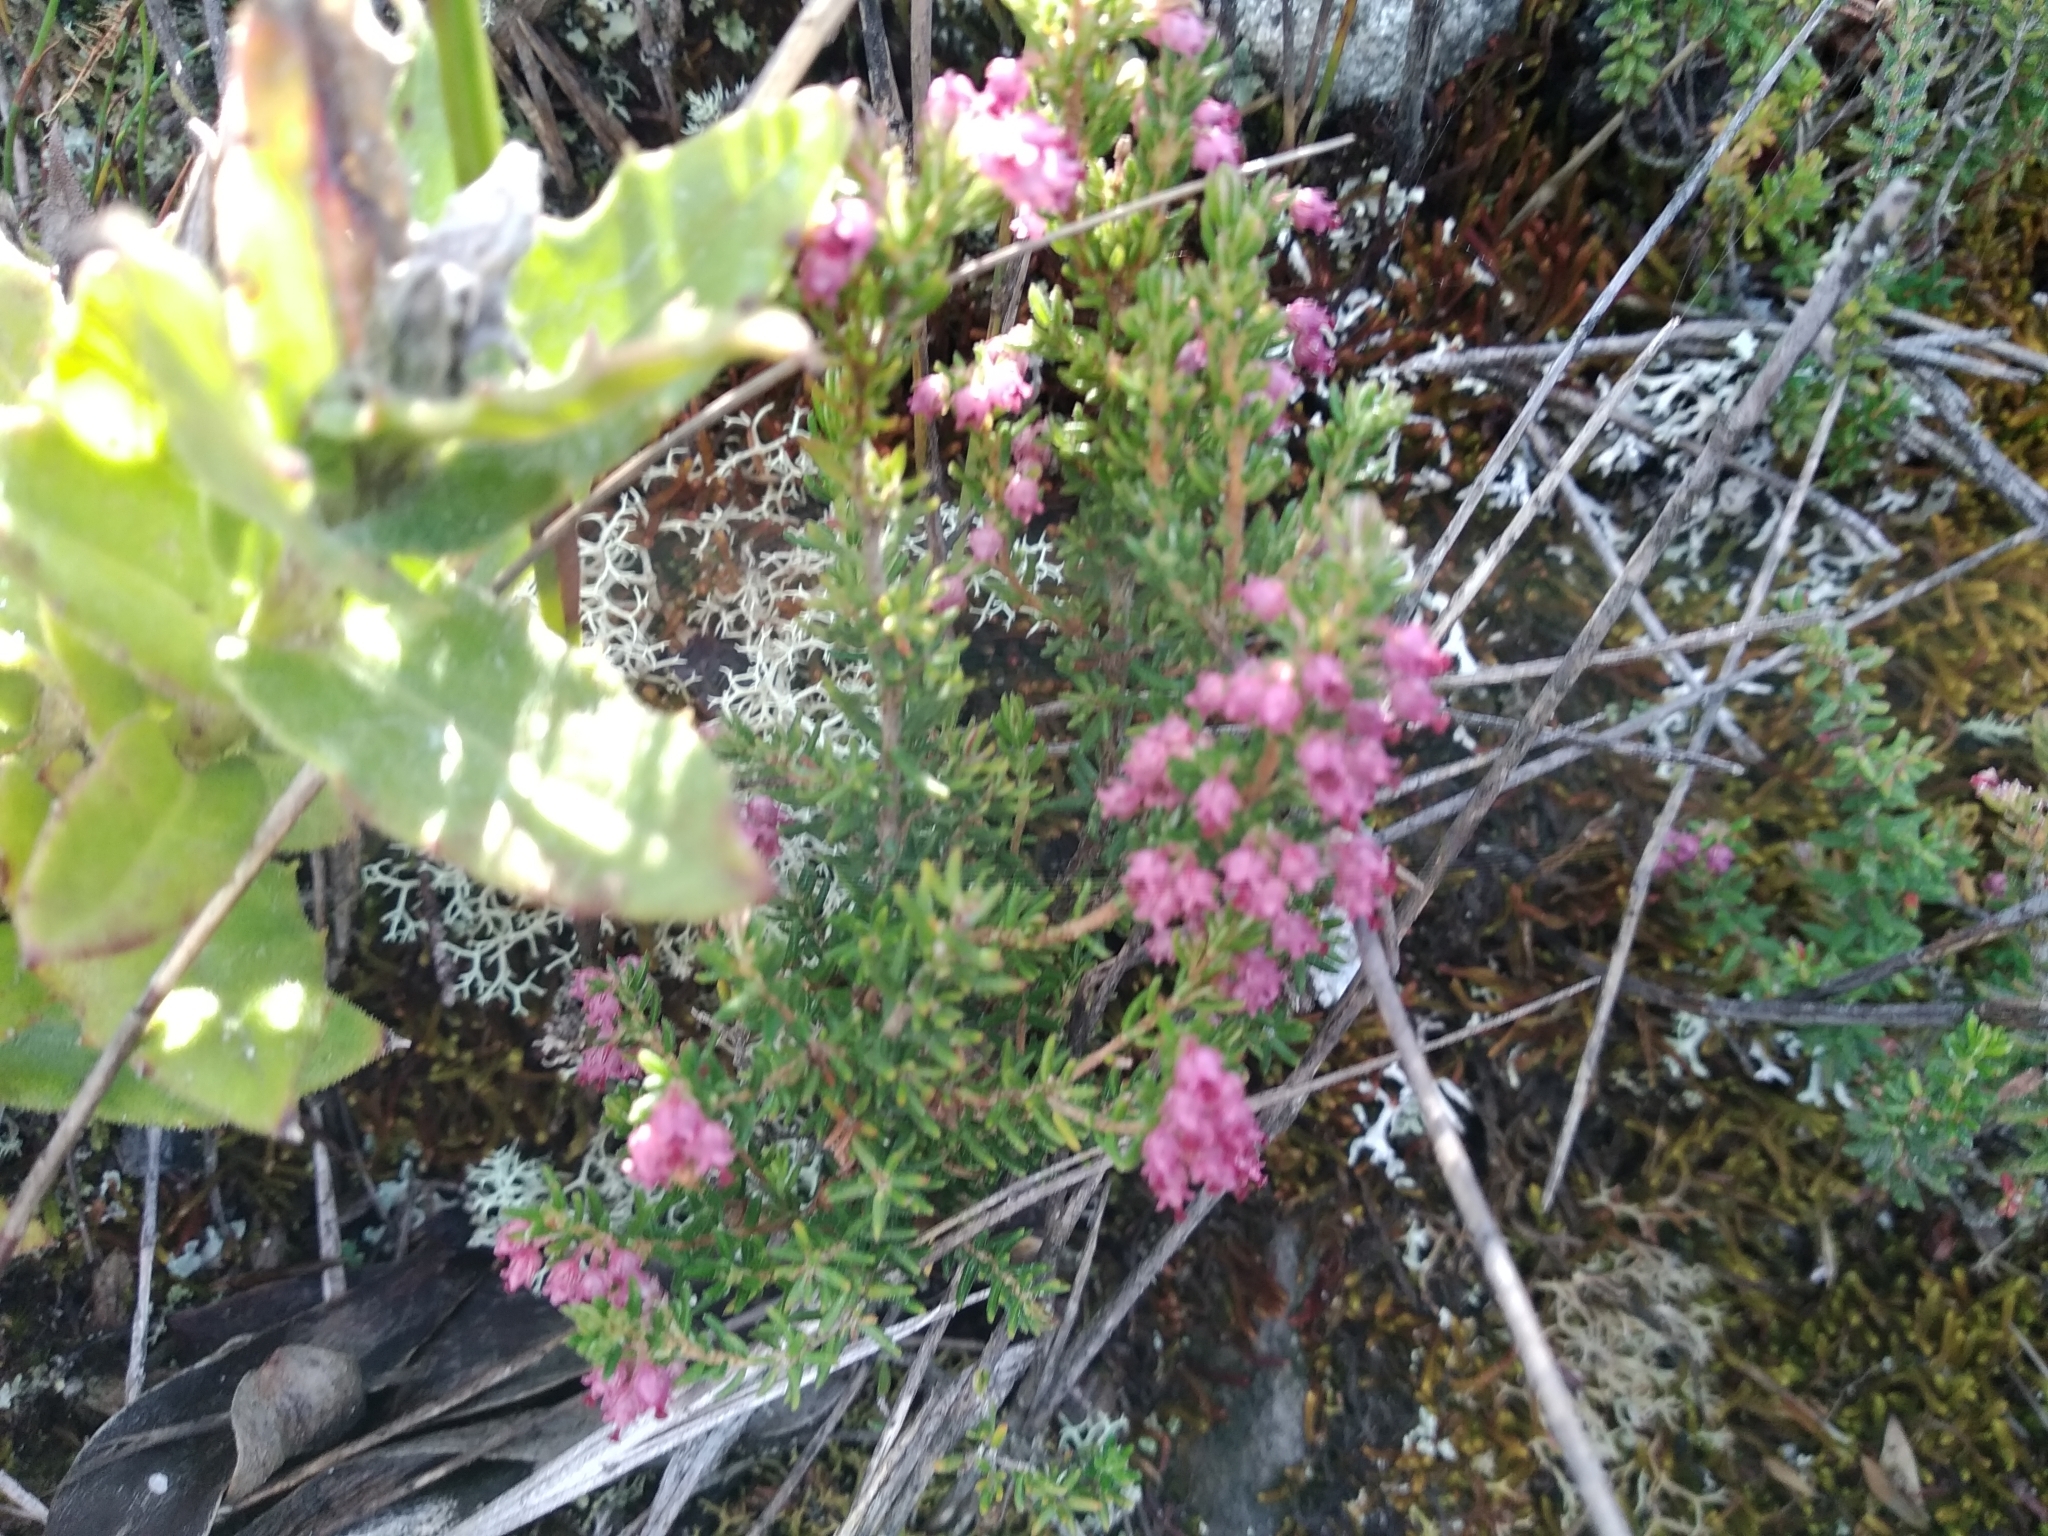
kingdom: Plantae
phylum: Tracheophyta
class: Magnoliopsida
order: Ericales
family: Ericaceae
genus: Erica
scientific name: Erica hispidula
